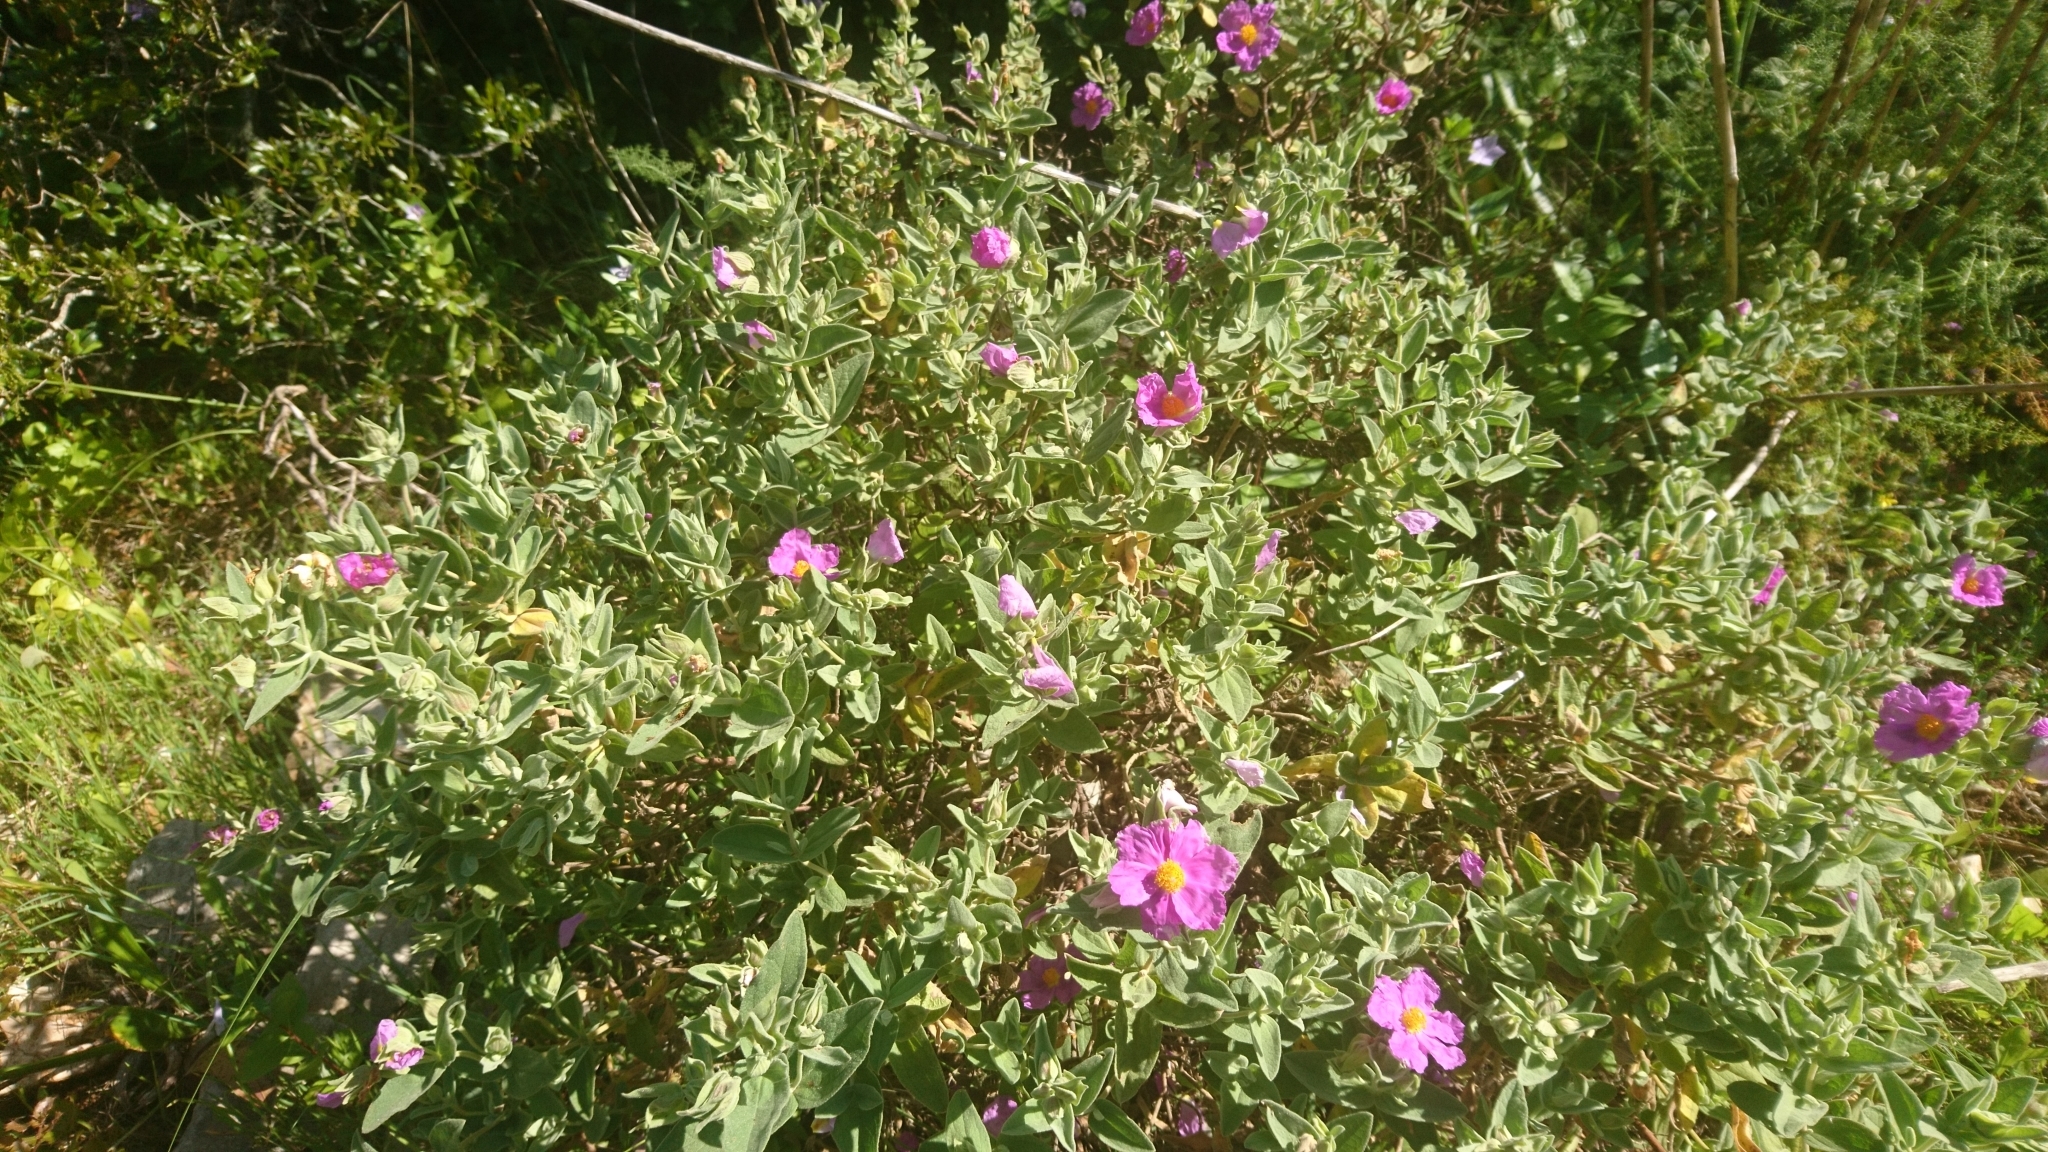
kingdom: Plantae
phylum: Tracheophyta
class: Magnoliopsida
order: Malvales
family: Cistaceae
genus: Cistus
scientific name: Cistus albidus
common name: White-leaf rock-rose
